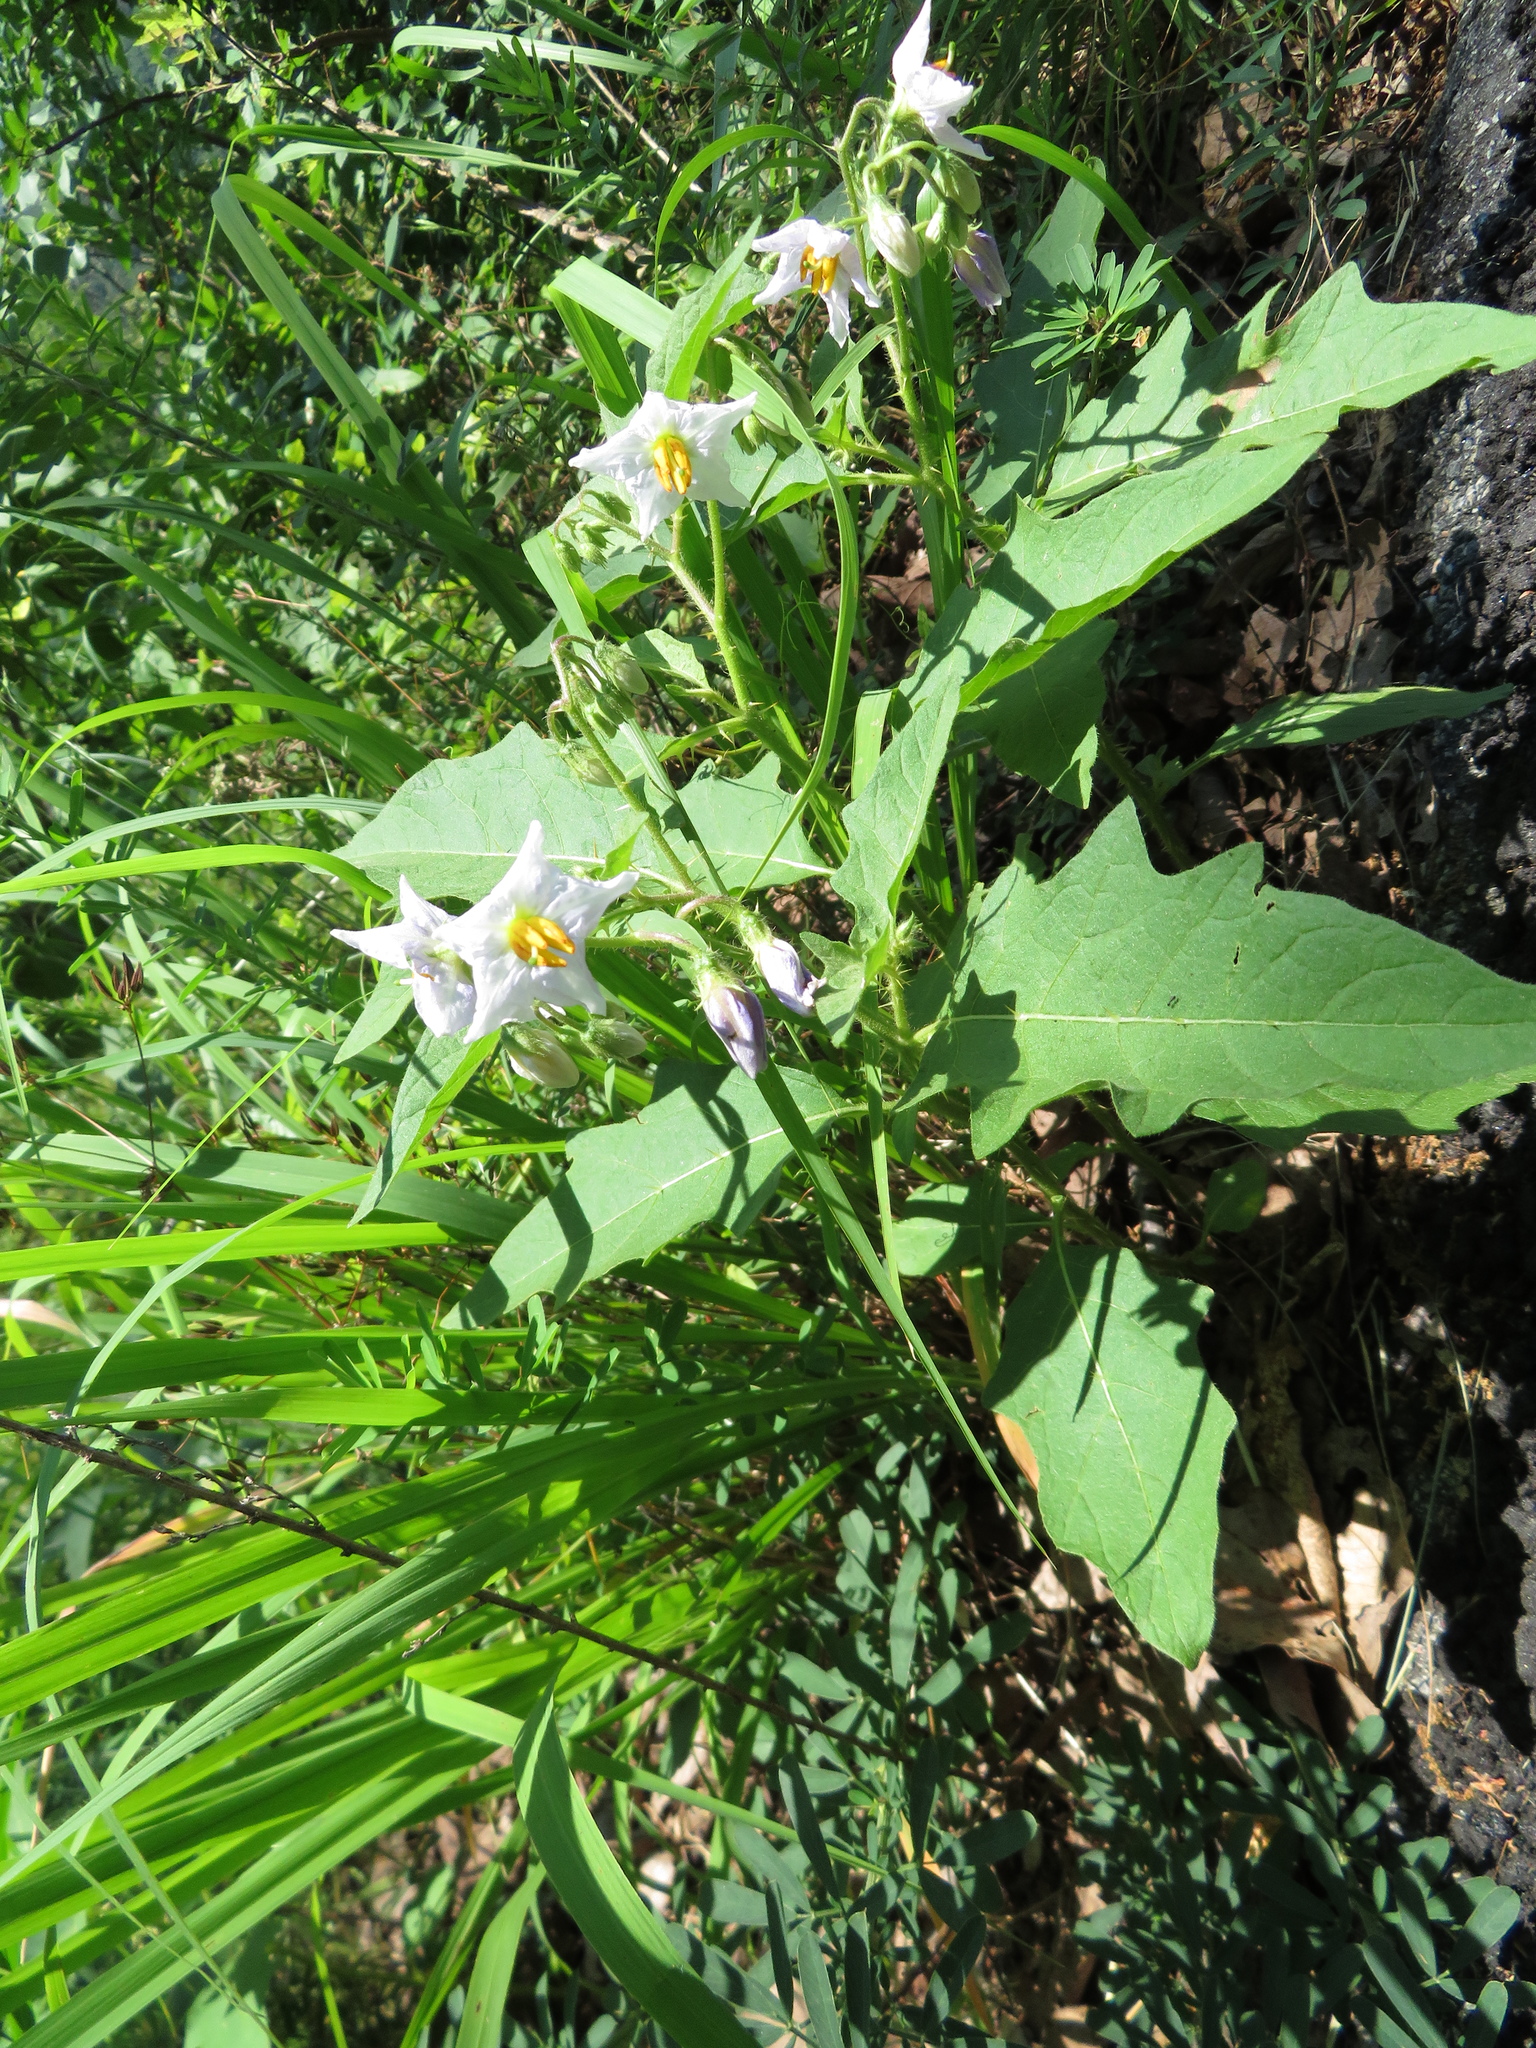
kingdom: Plantae
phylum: Tracheophyta
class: Magnoliopsida
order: Solanales
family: Solanaceae
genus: Solanum
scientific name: Solanum carolinense
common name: Horse-nettle
